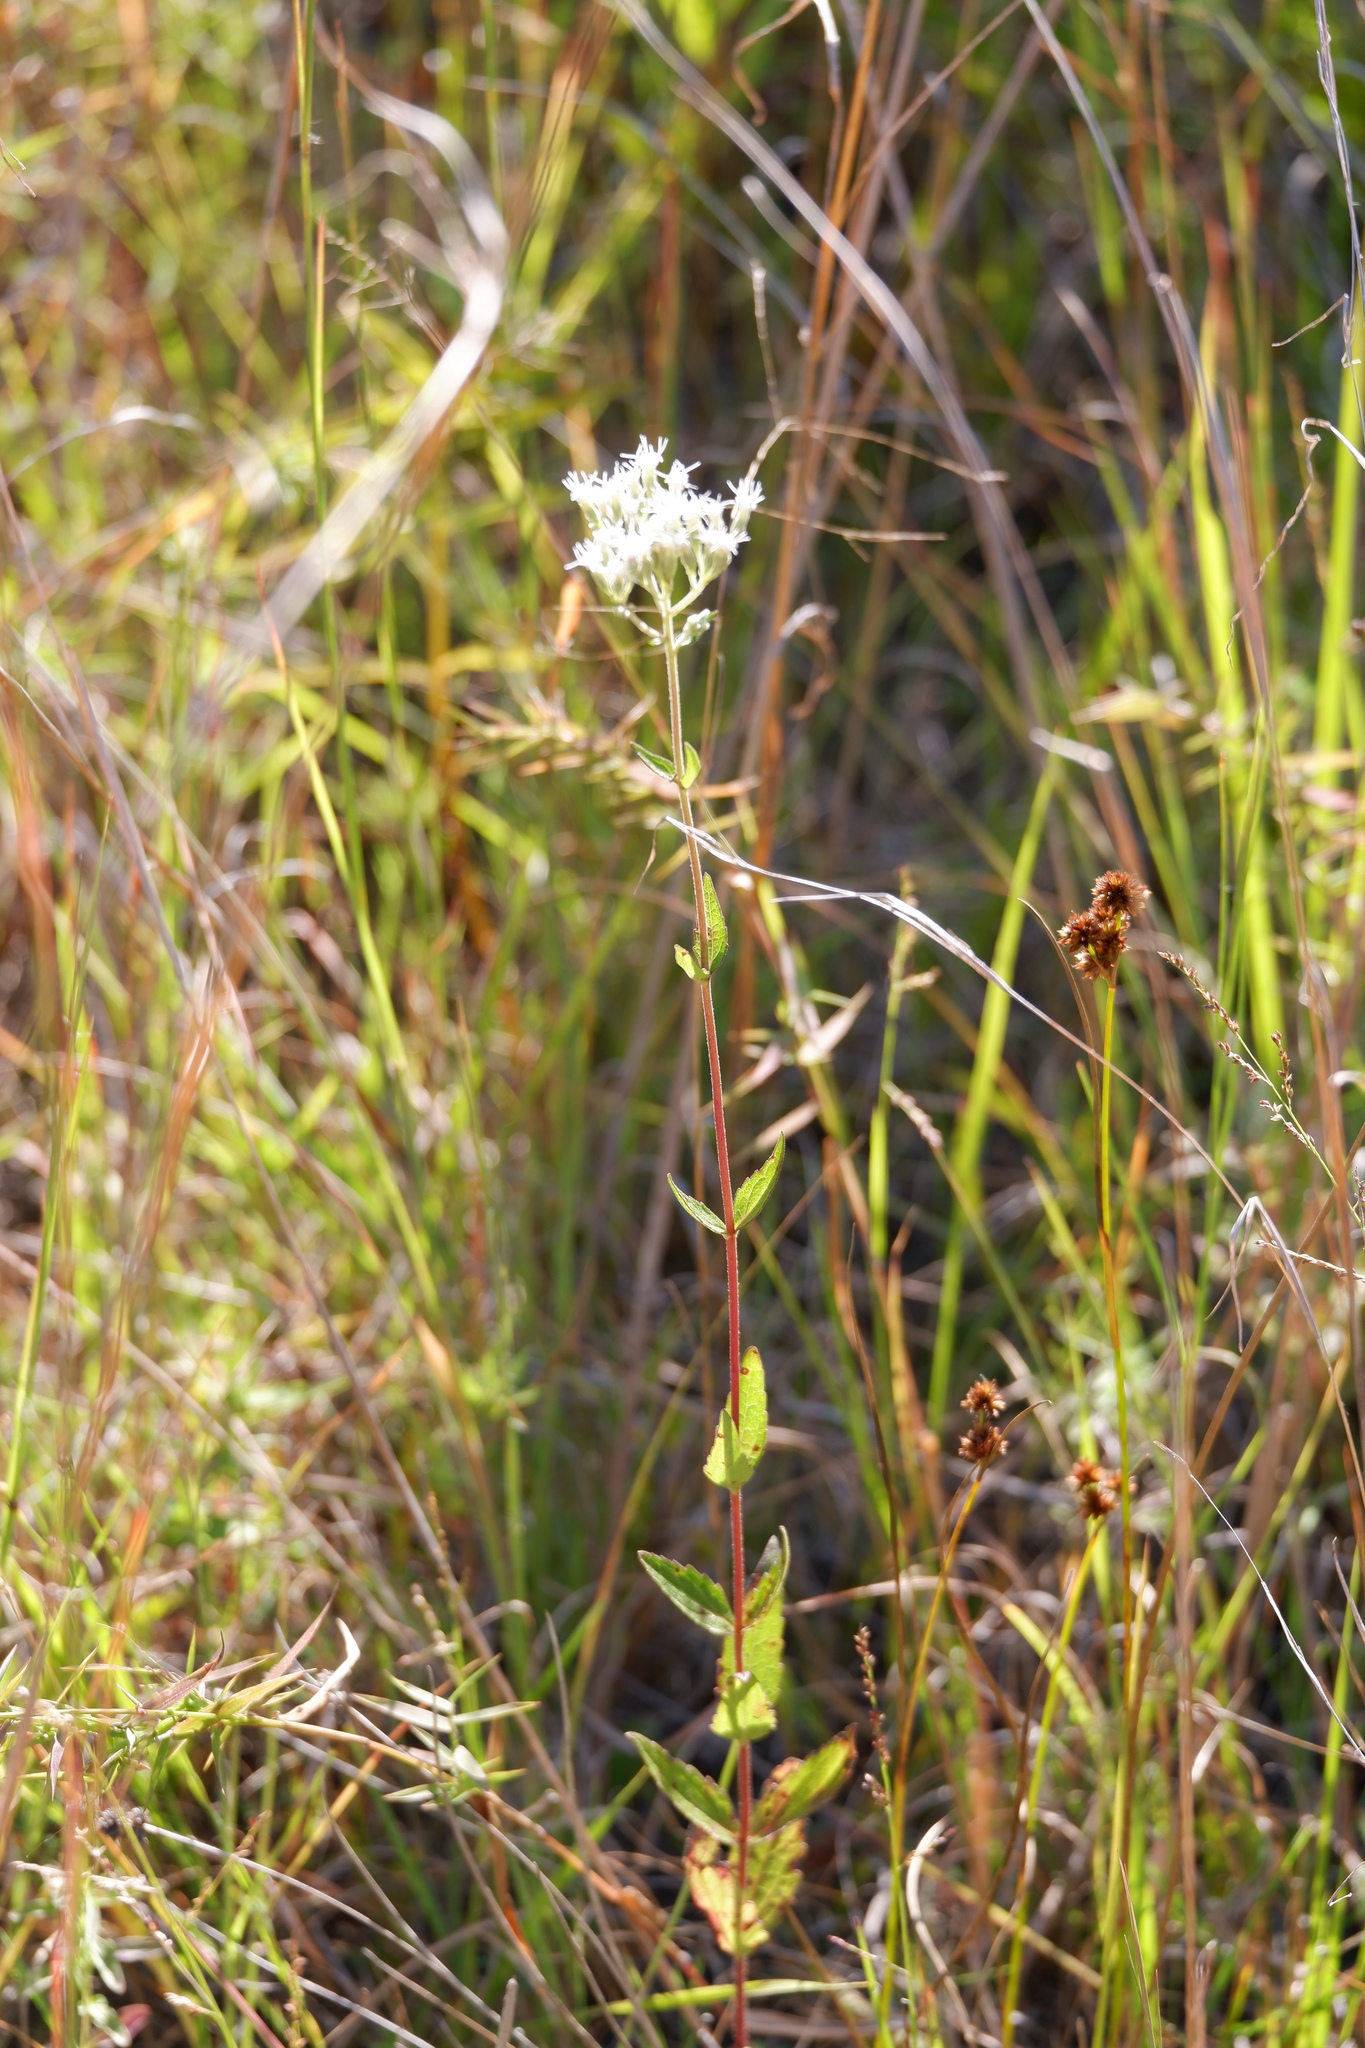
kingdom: Plantae
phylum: Tracheophyta
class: Magnoliopsida
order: Asterales
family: Asteraceae
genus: Eupatorium
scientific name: Eupatorium pilosum
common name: Rough boneset
